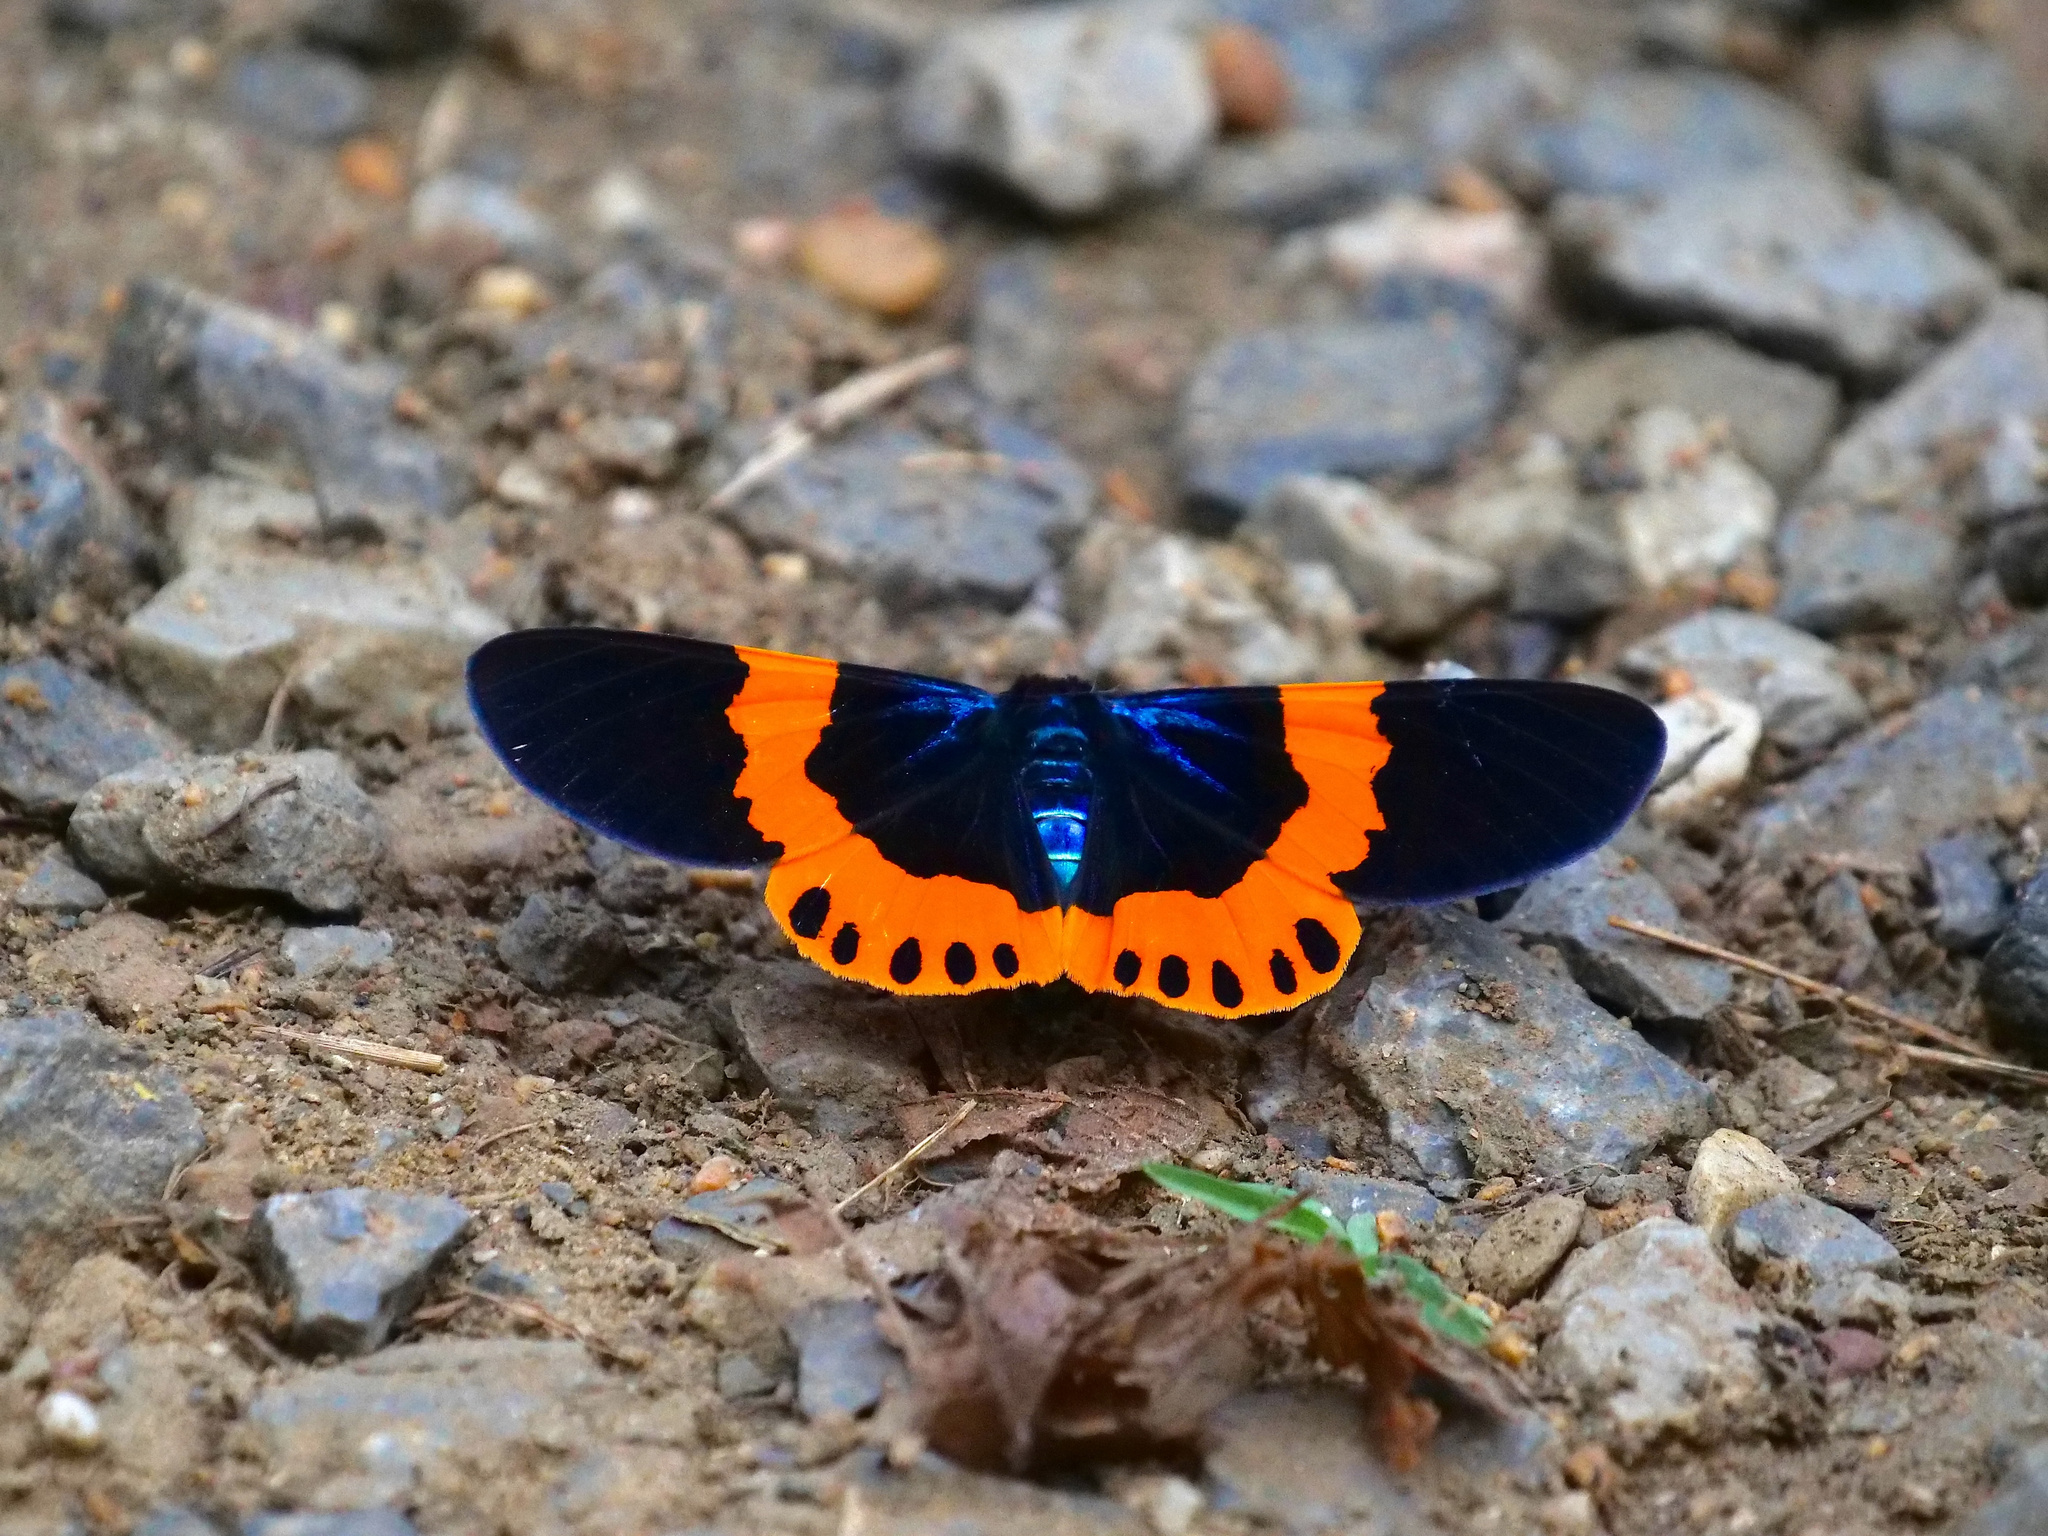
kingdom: Animalia
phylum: Arthropoda
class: Insecta
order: Lepidoptera
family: Geometridae
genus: Milionia
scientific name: Milionia basalis
